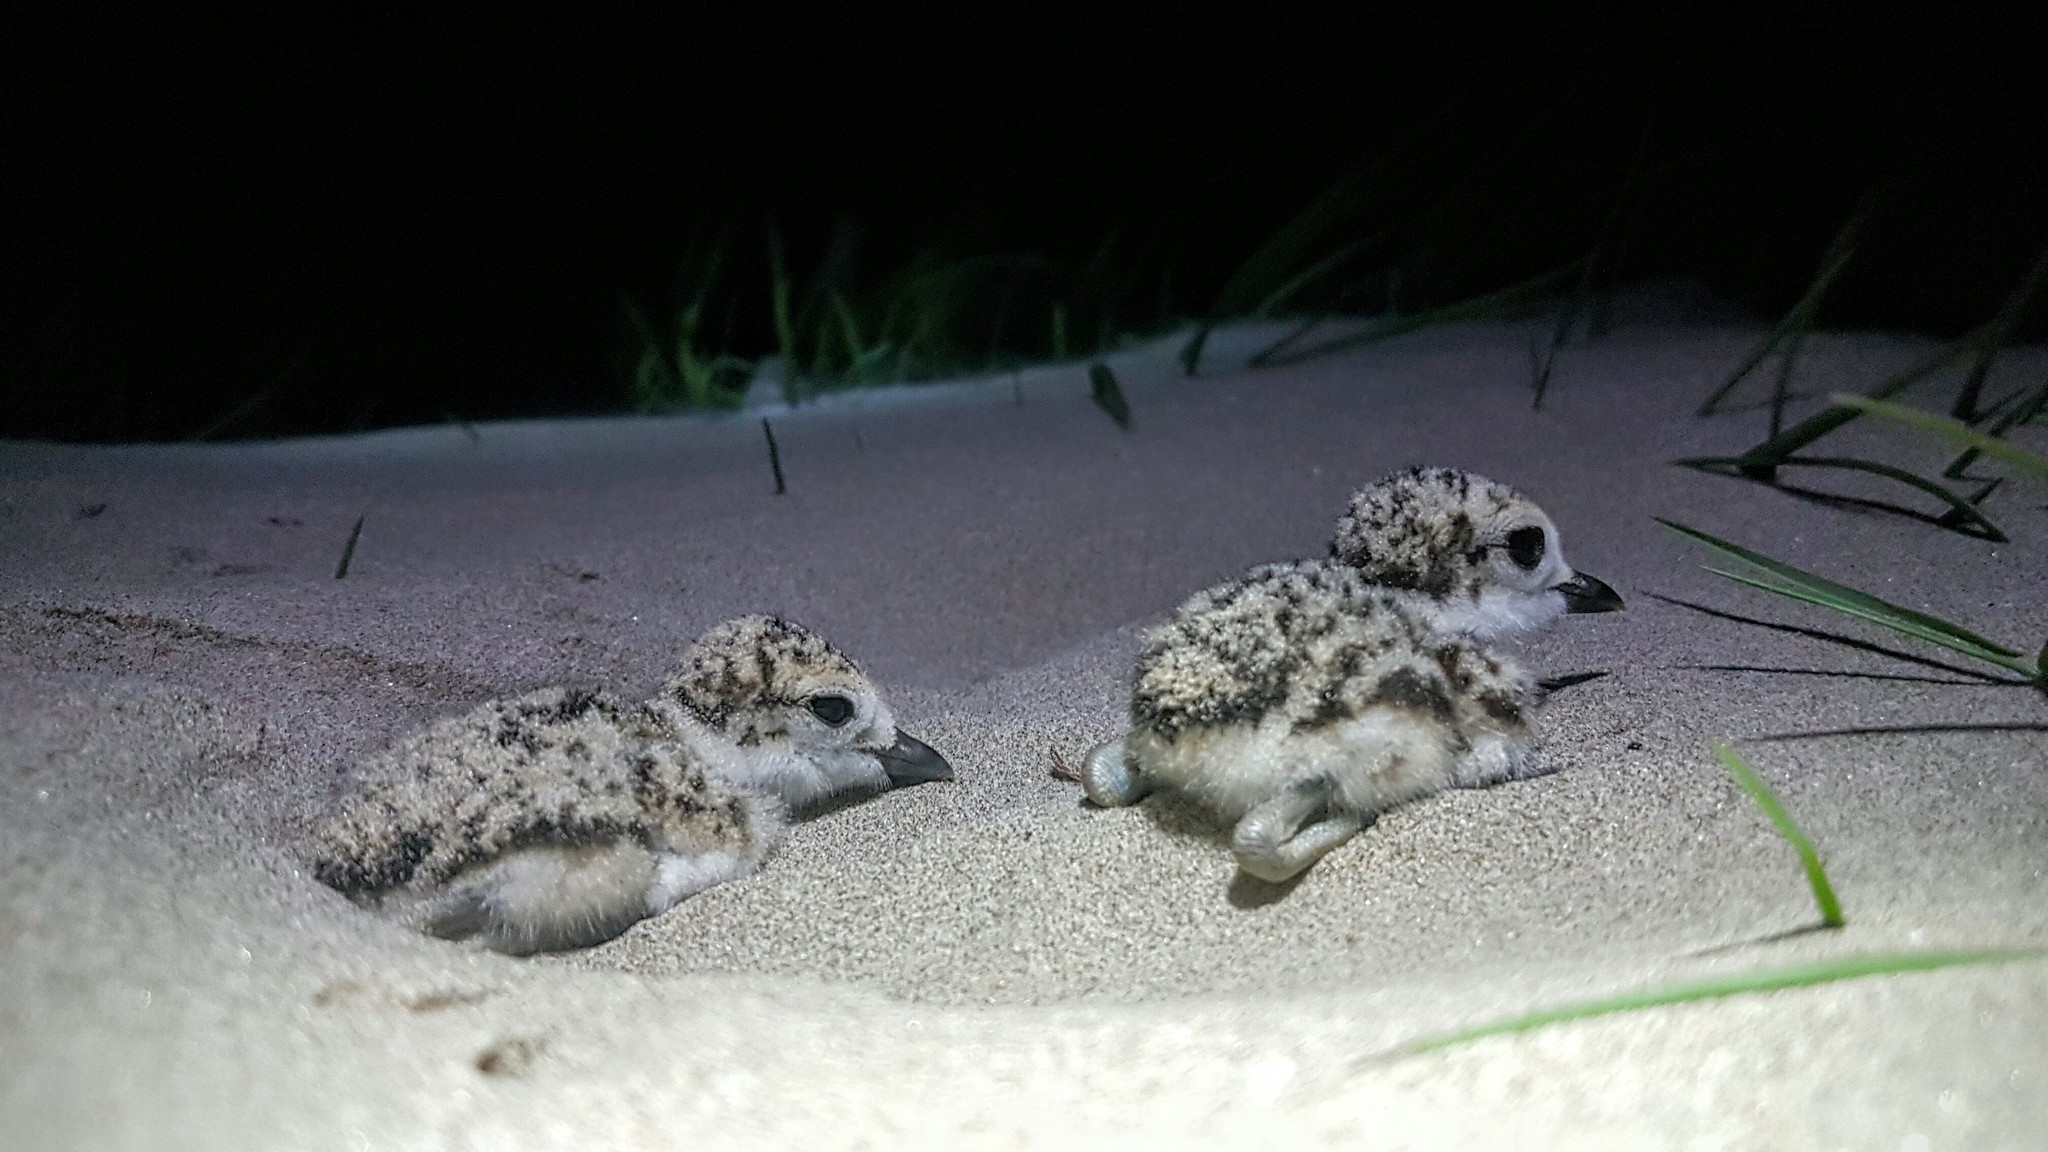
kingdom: Animalia
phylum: Chordata
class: Aves
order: Charadriiformes
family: Charadriidae
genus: Anarhynchus
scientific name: Anarhynchus
